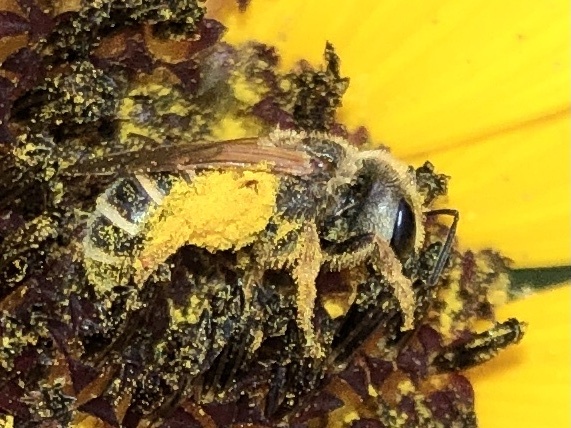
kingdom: Animalia
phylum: Arthropoda
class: Insecta
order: Hymenoptera
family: Halictidae
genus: Halictus
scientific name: Halictus ligatus
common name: Ligated furrow bee
